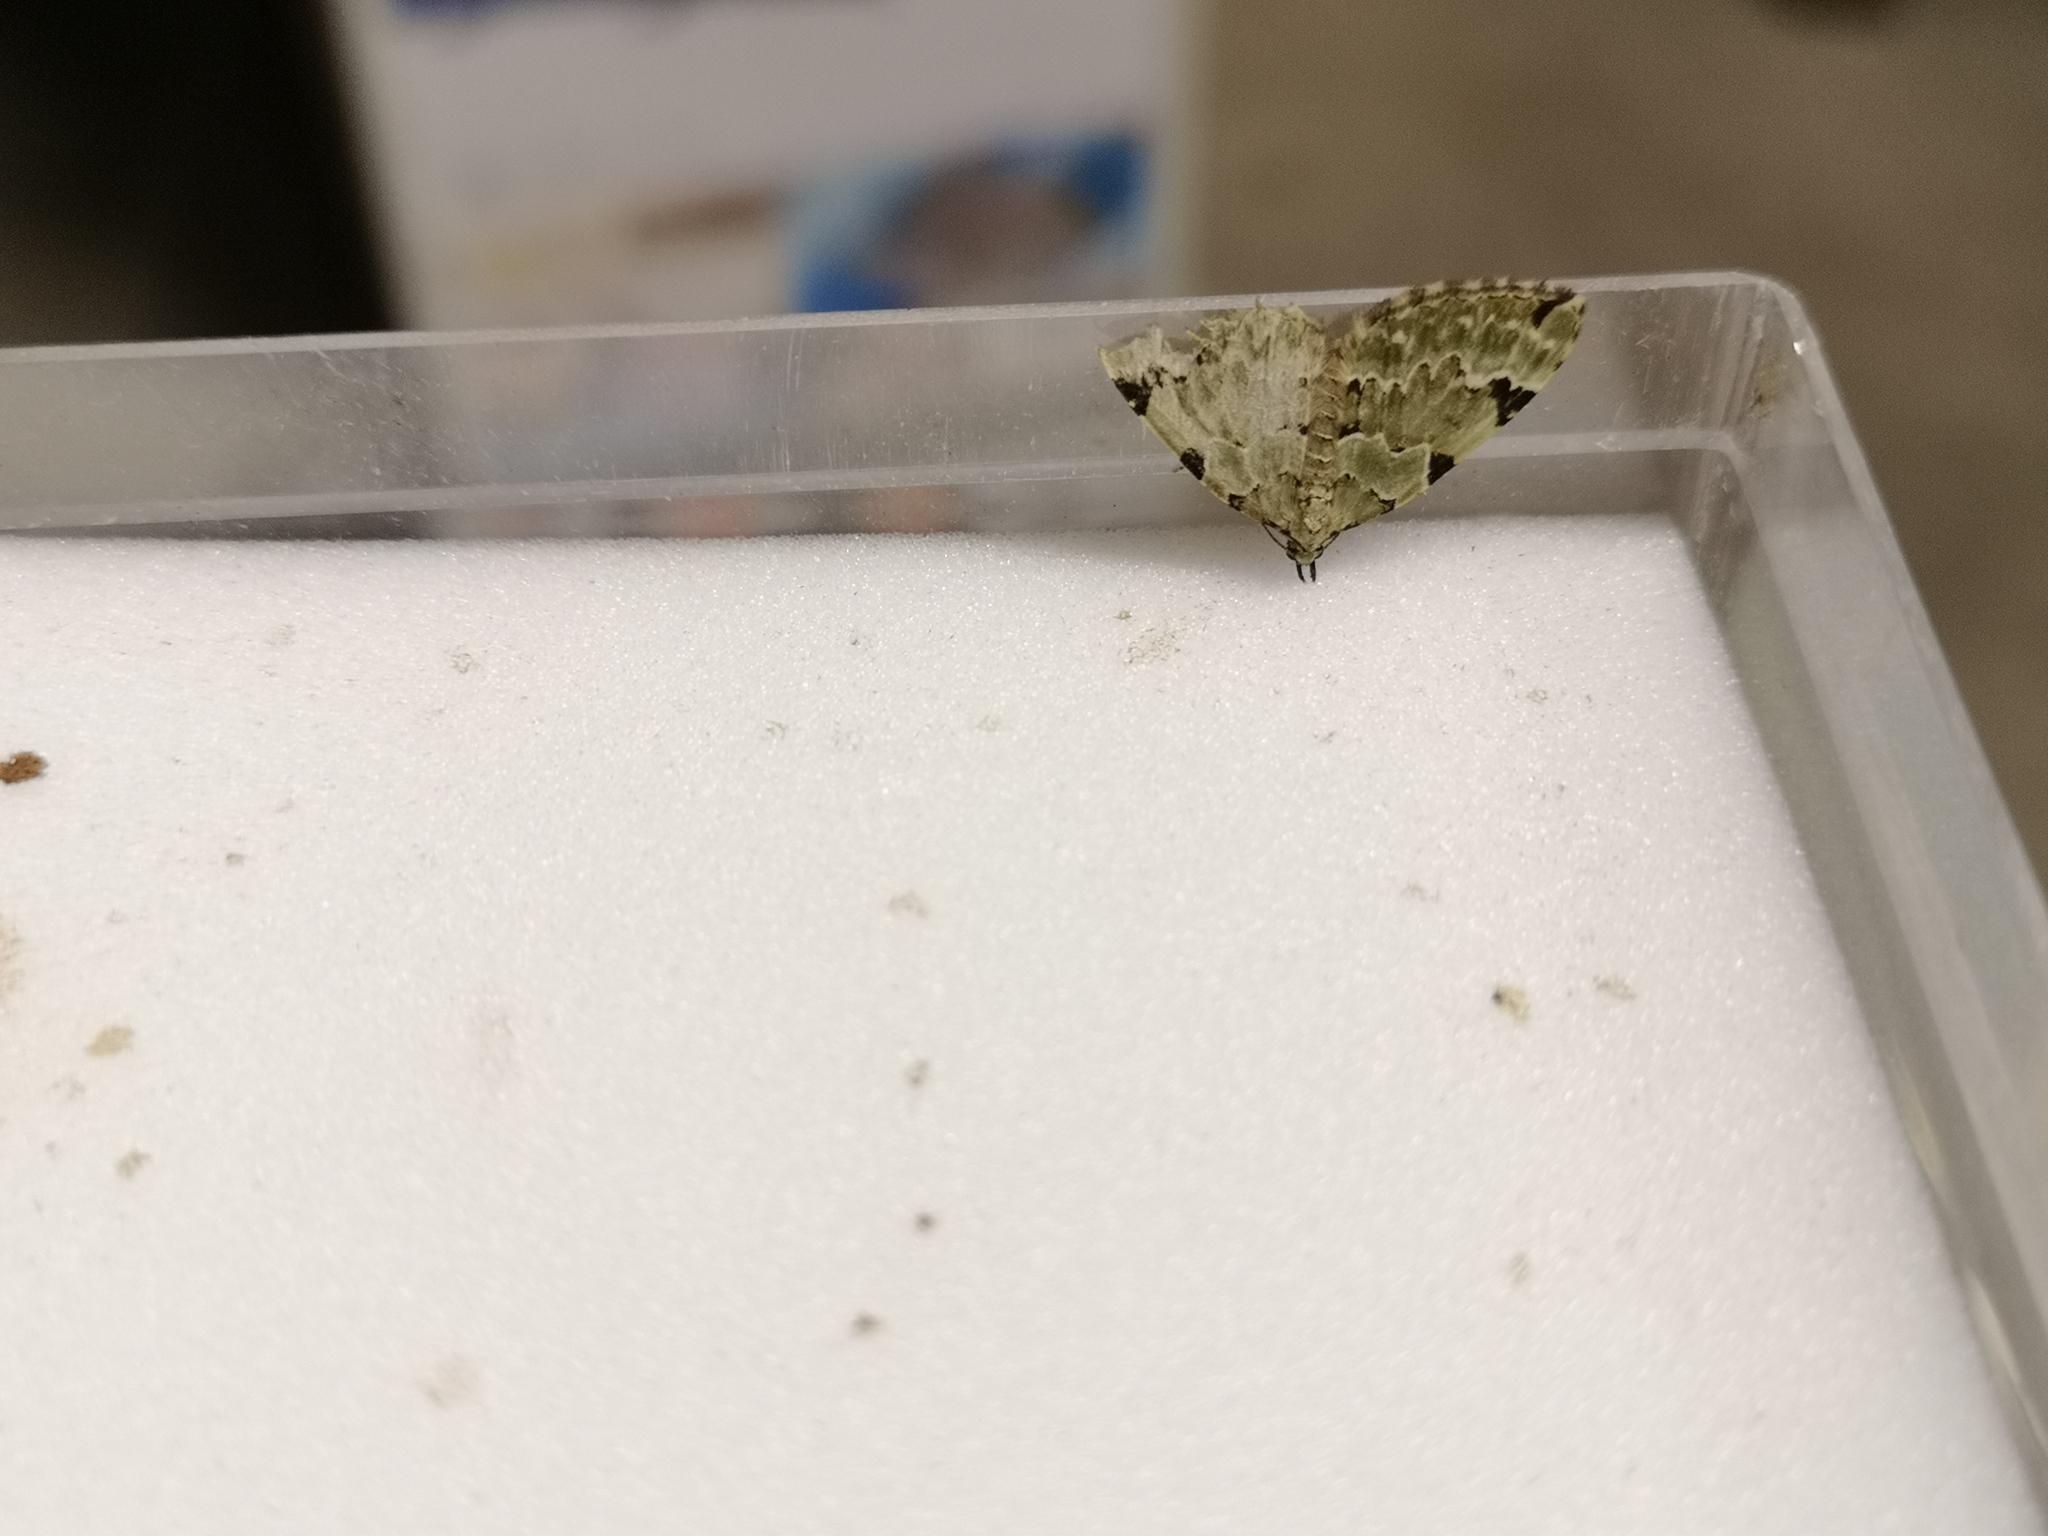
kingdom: Animalia
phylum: Arthropoda
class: Insecta
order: Lepidoptera
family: Geometridae
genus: Colostygia
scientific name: Colostygia pectinataria
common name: Green carpet
